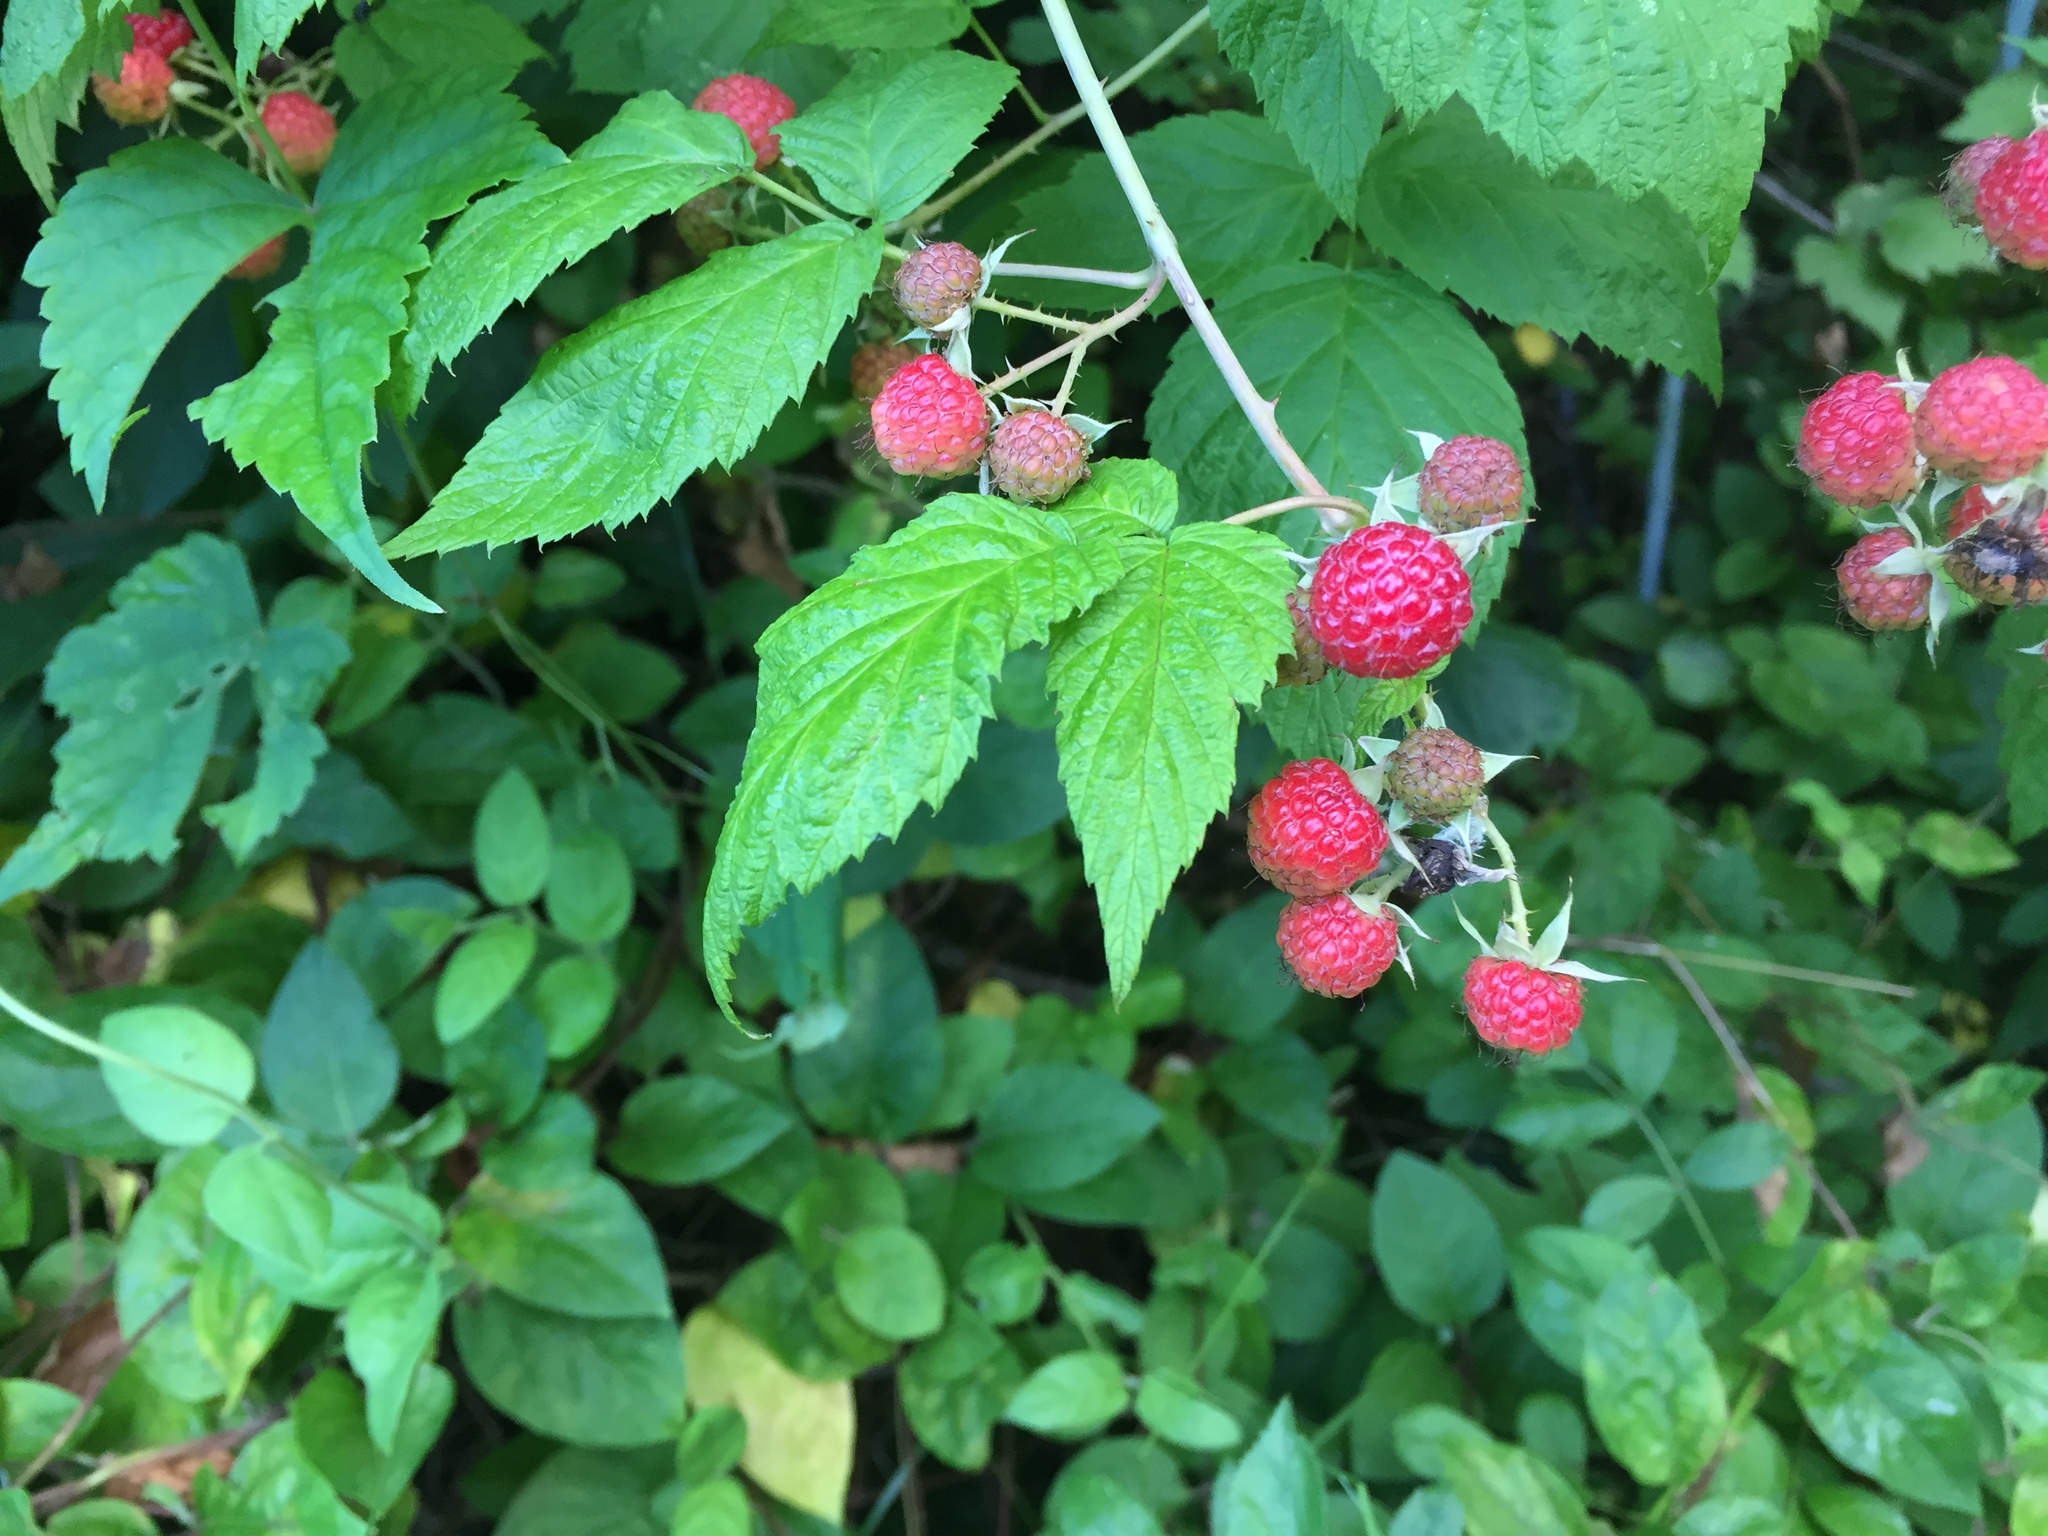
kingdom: Plantae
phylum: Tracheophyta
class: Magnoliopsida
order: Rosales
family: Rosaceae
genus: Rubus
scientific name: Rubus occidentalis
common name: Black raspberry
